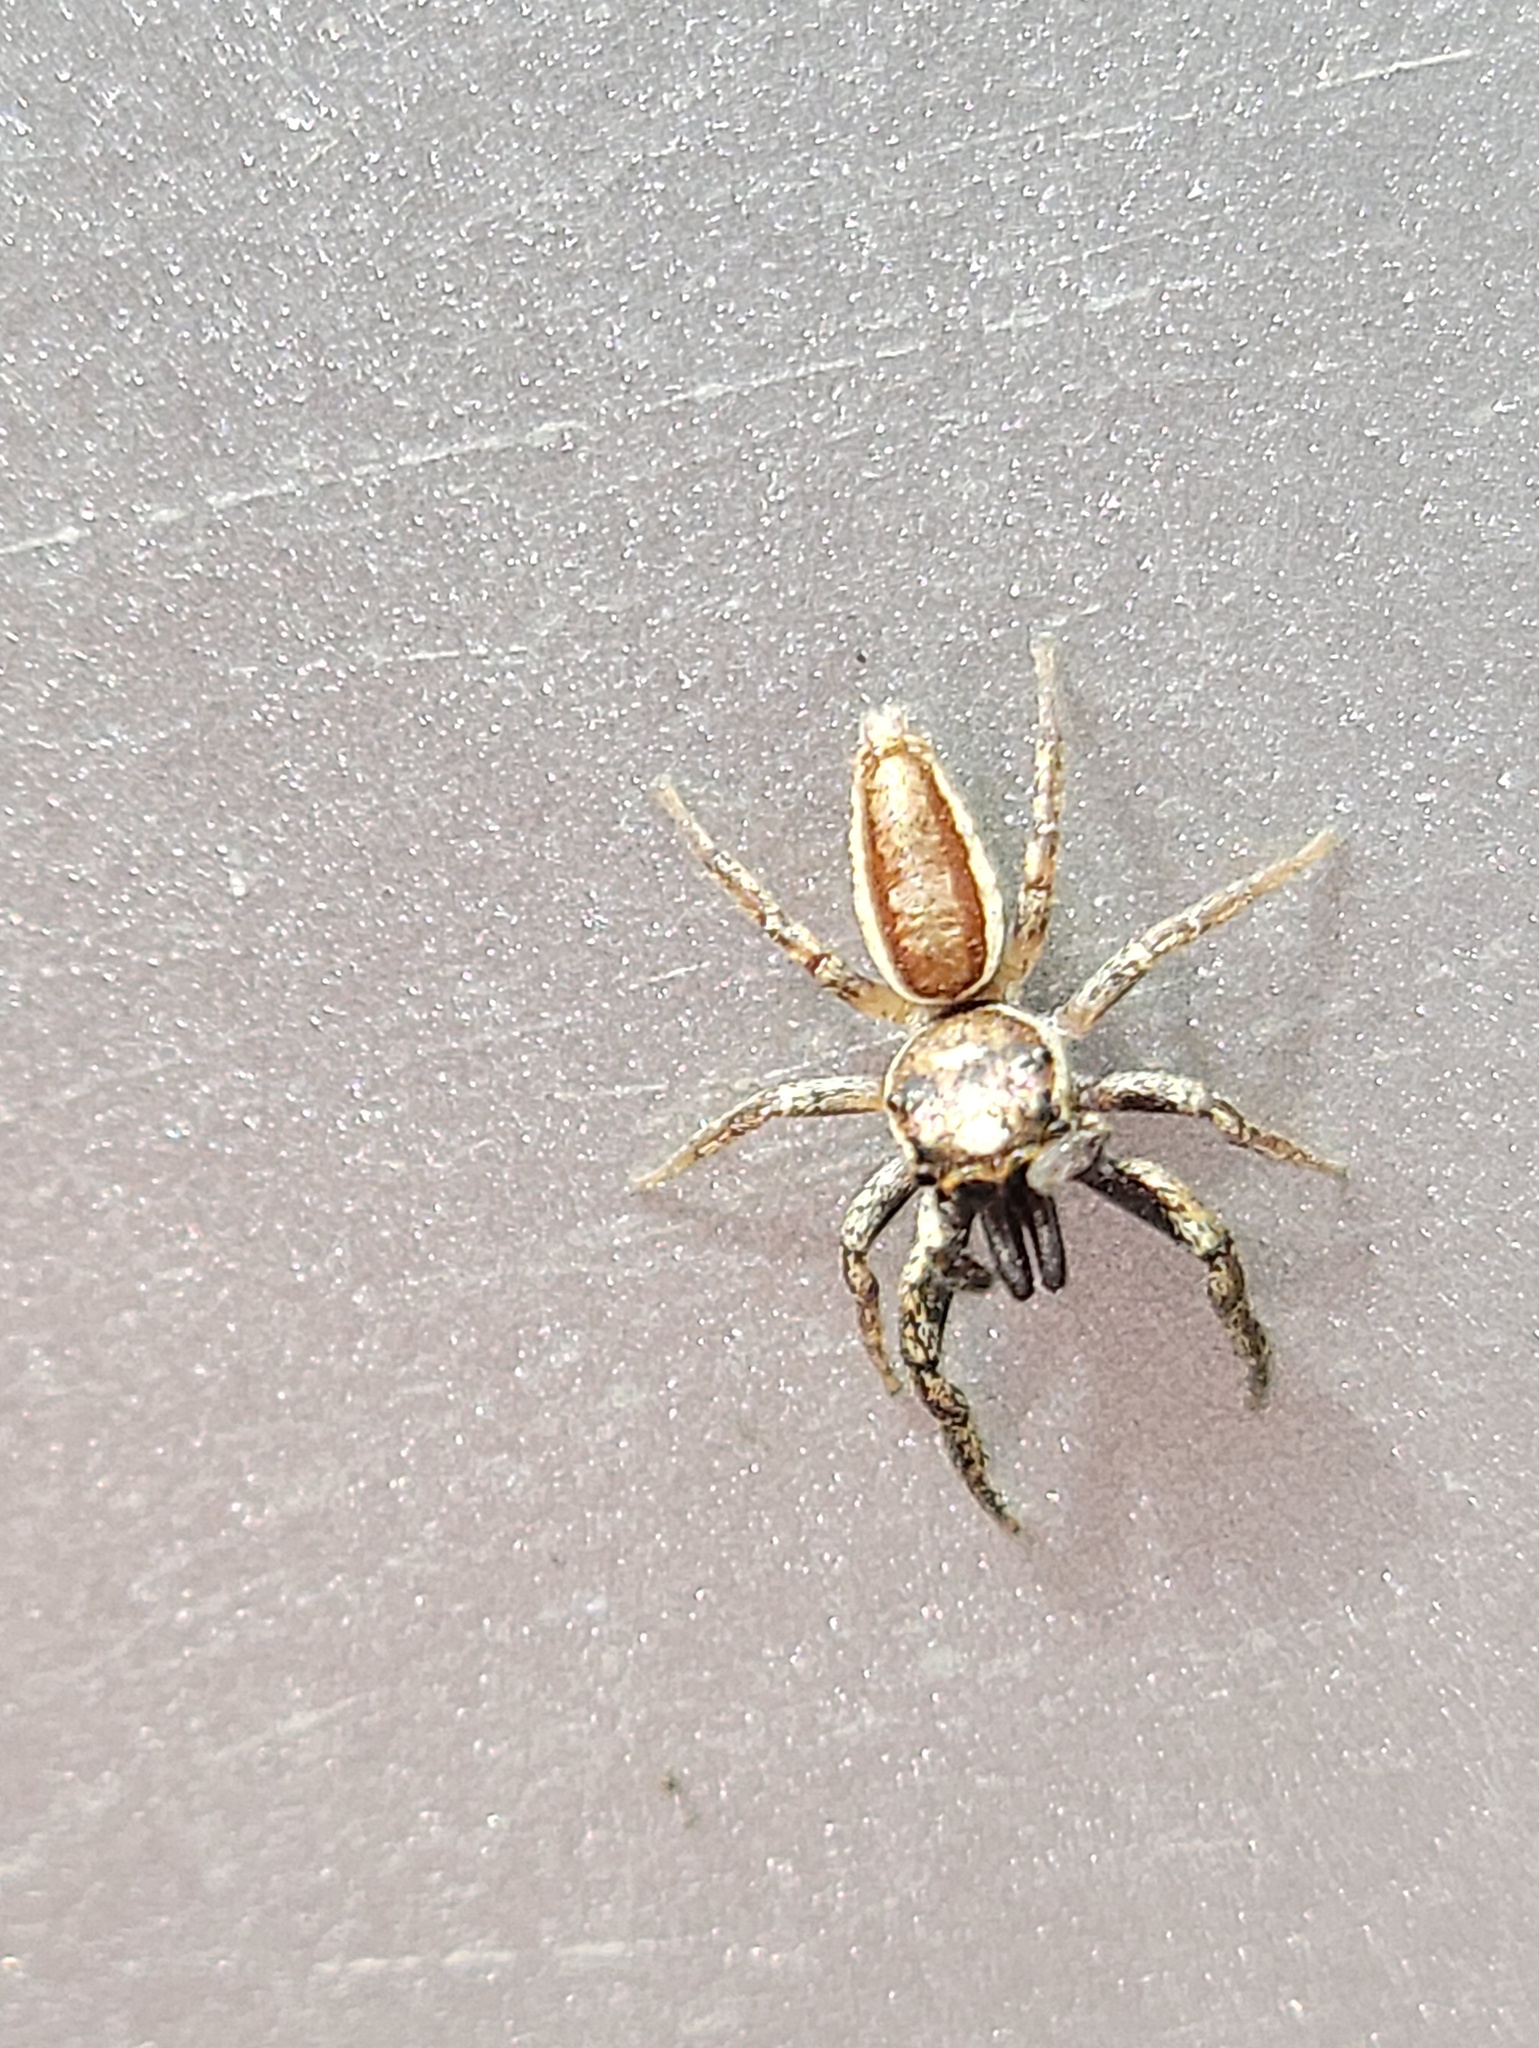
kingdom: Animalia
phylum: Arthropoda
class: Arachnida
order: Araneae
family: Salticidae
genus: Bagheera
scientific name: Bagheera prosper
